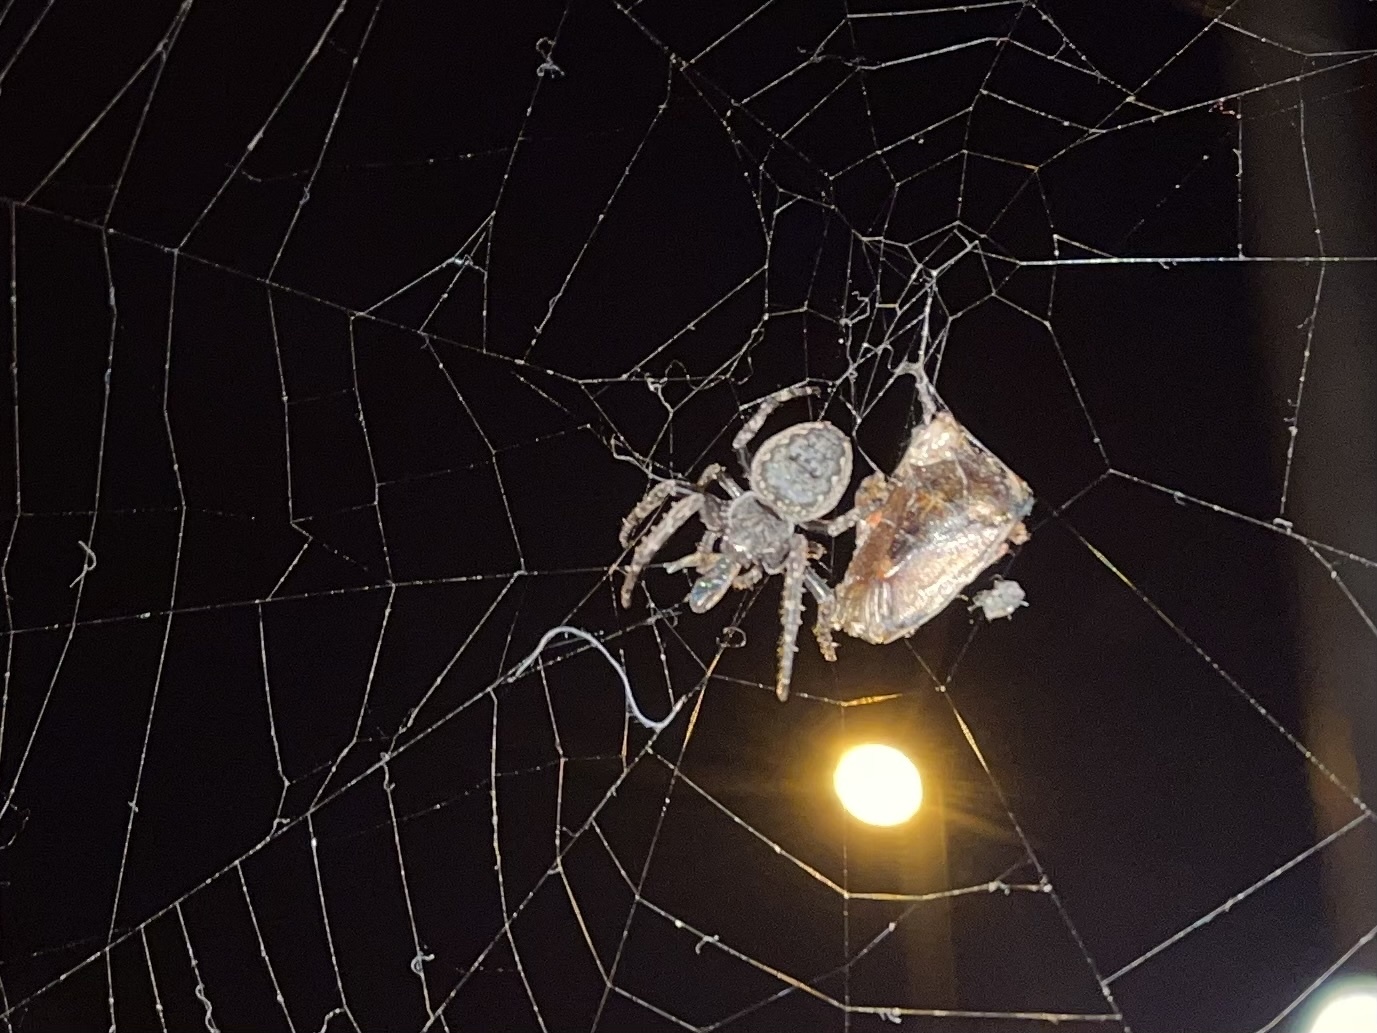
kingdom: Animalia
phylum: Arthropoda
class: Arachnida
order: Araneae
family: Araneidae
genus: Nuctenea
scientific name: Nuctenea umbratica
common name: Toad spider
